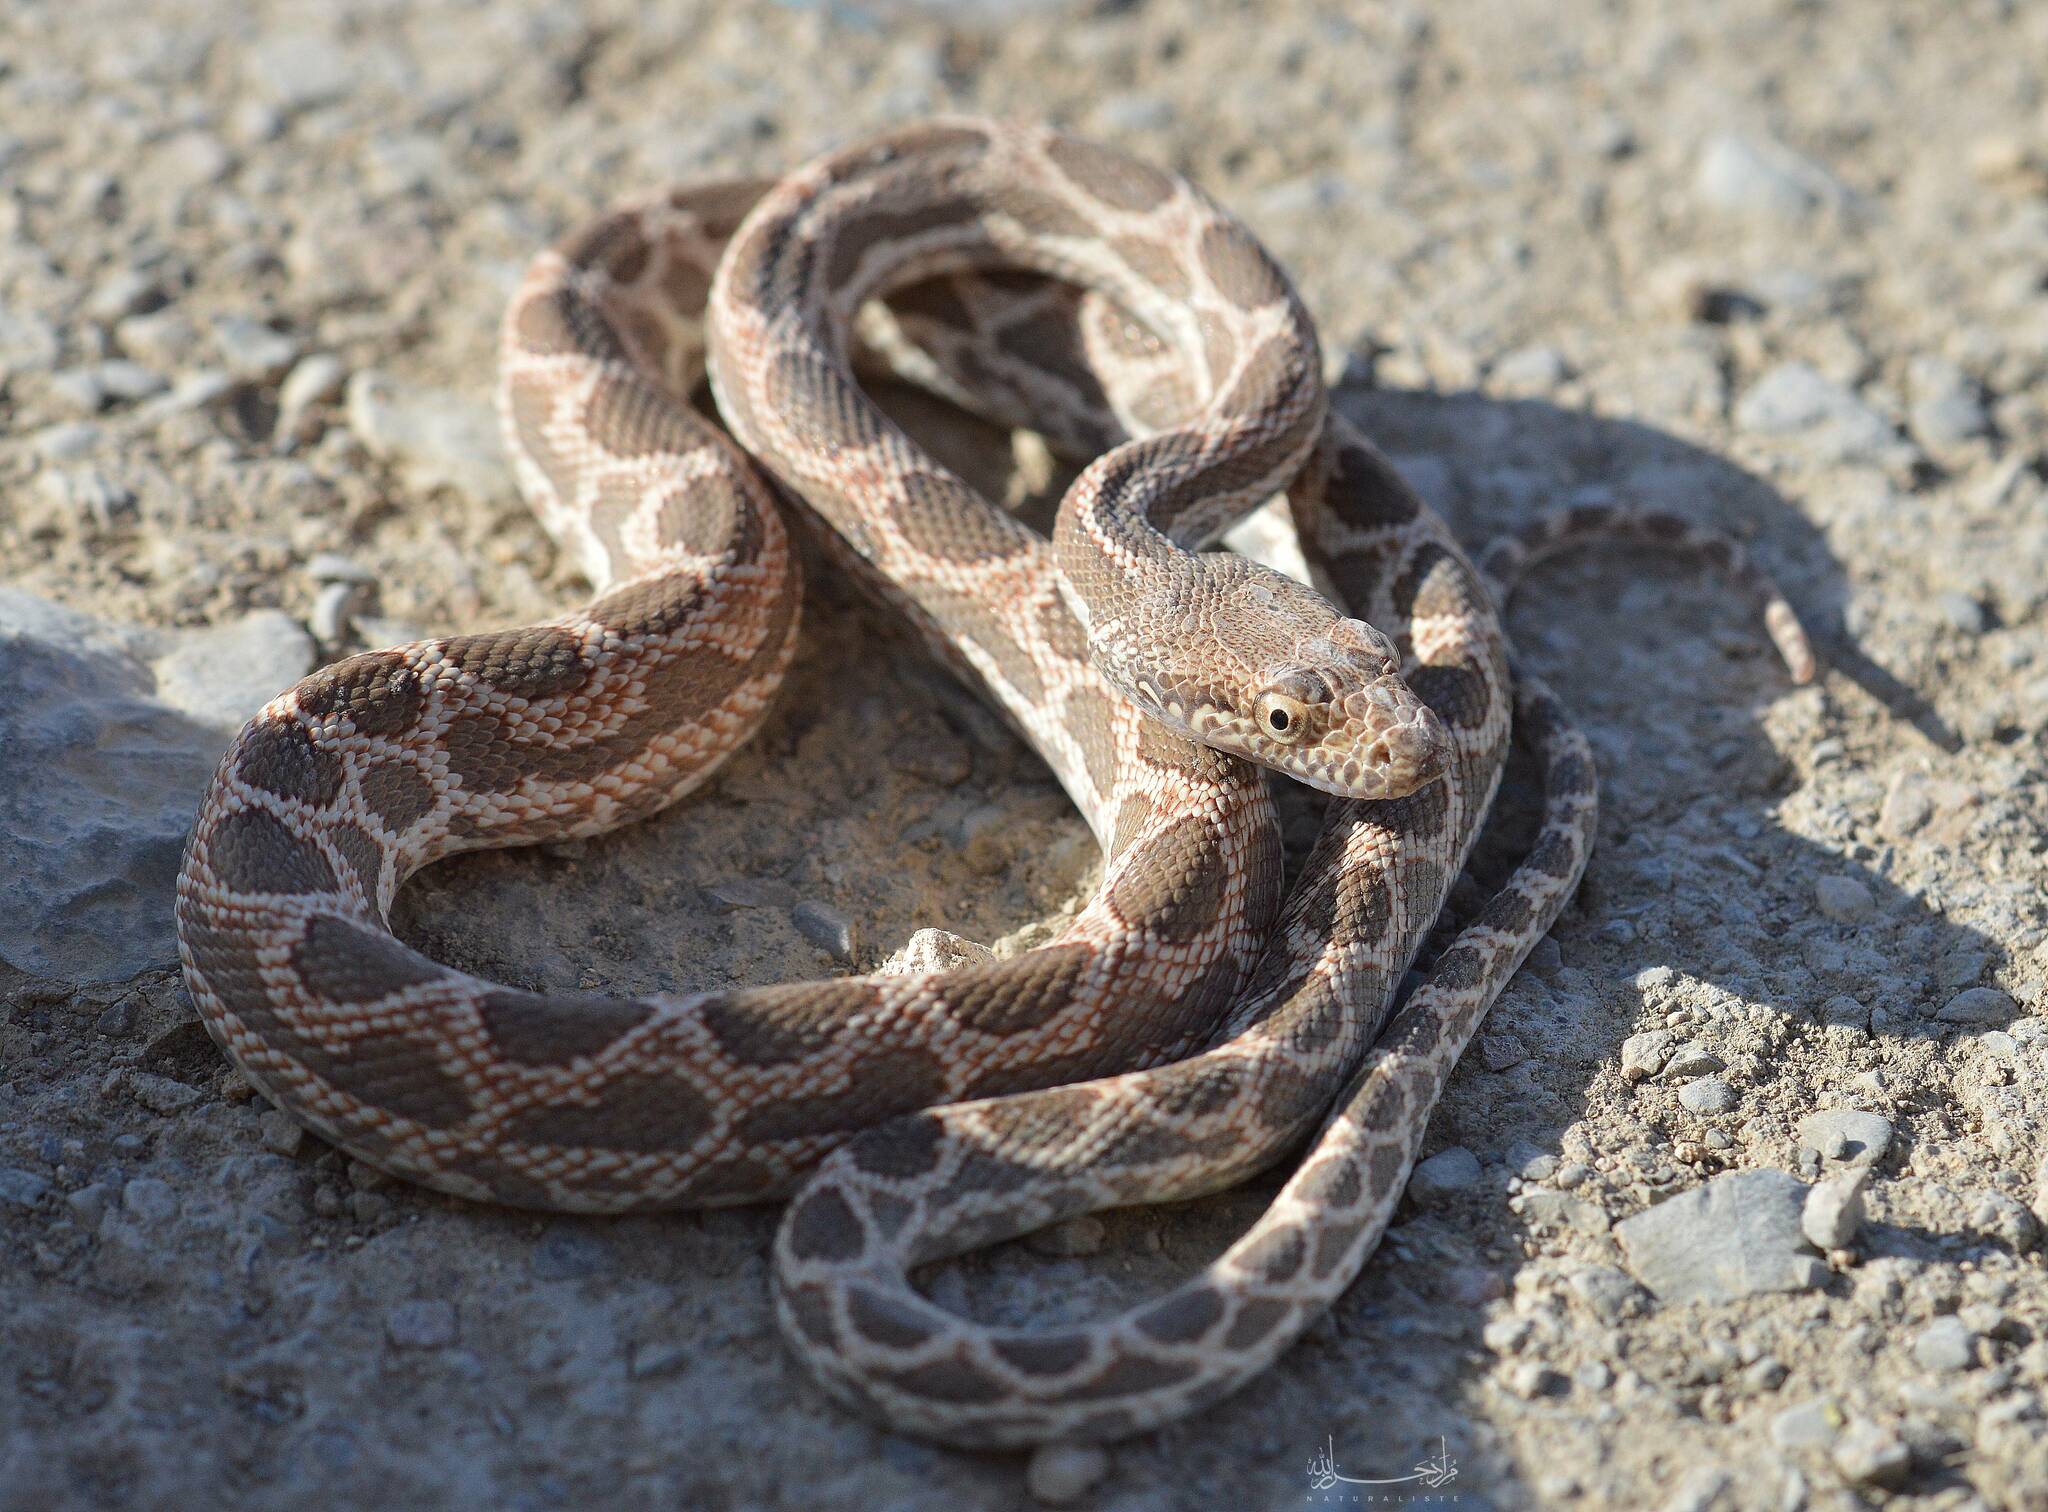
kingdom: Animalia
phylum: Chordata
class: Squamata
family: Colubridae
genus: Spalerosophis
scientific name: Spalerosophis dolichospilus
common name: Mograbin diadem snake
